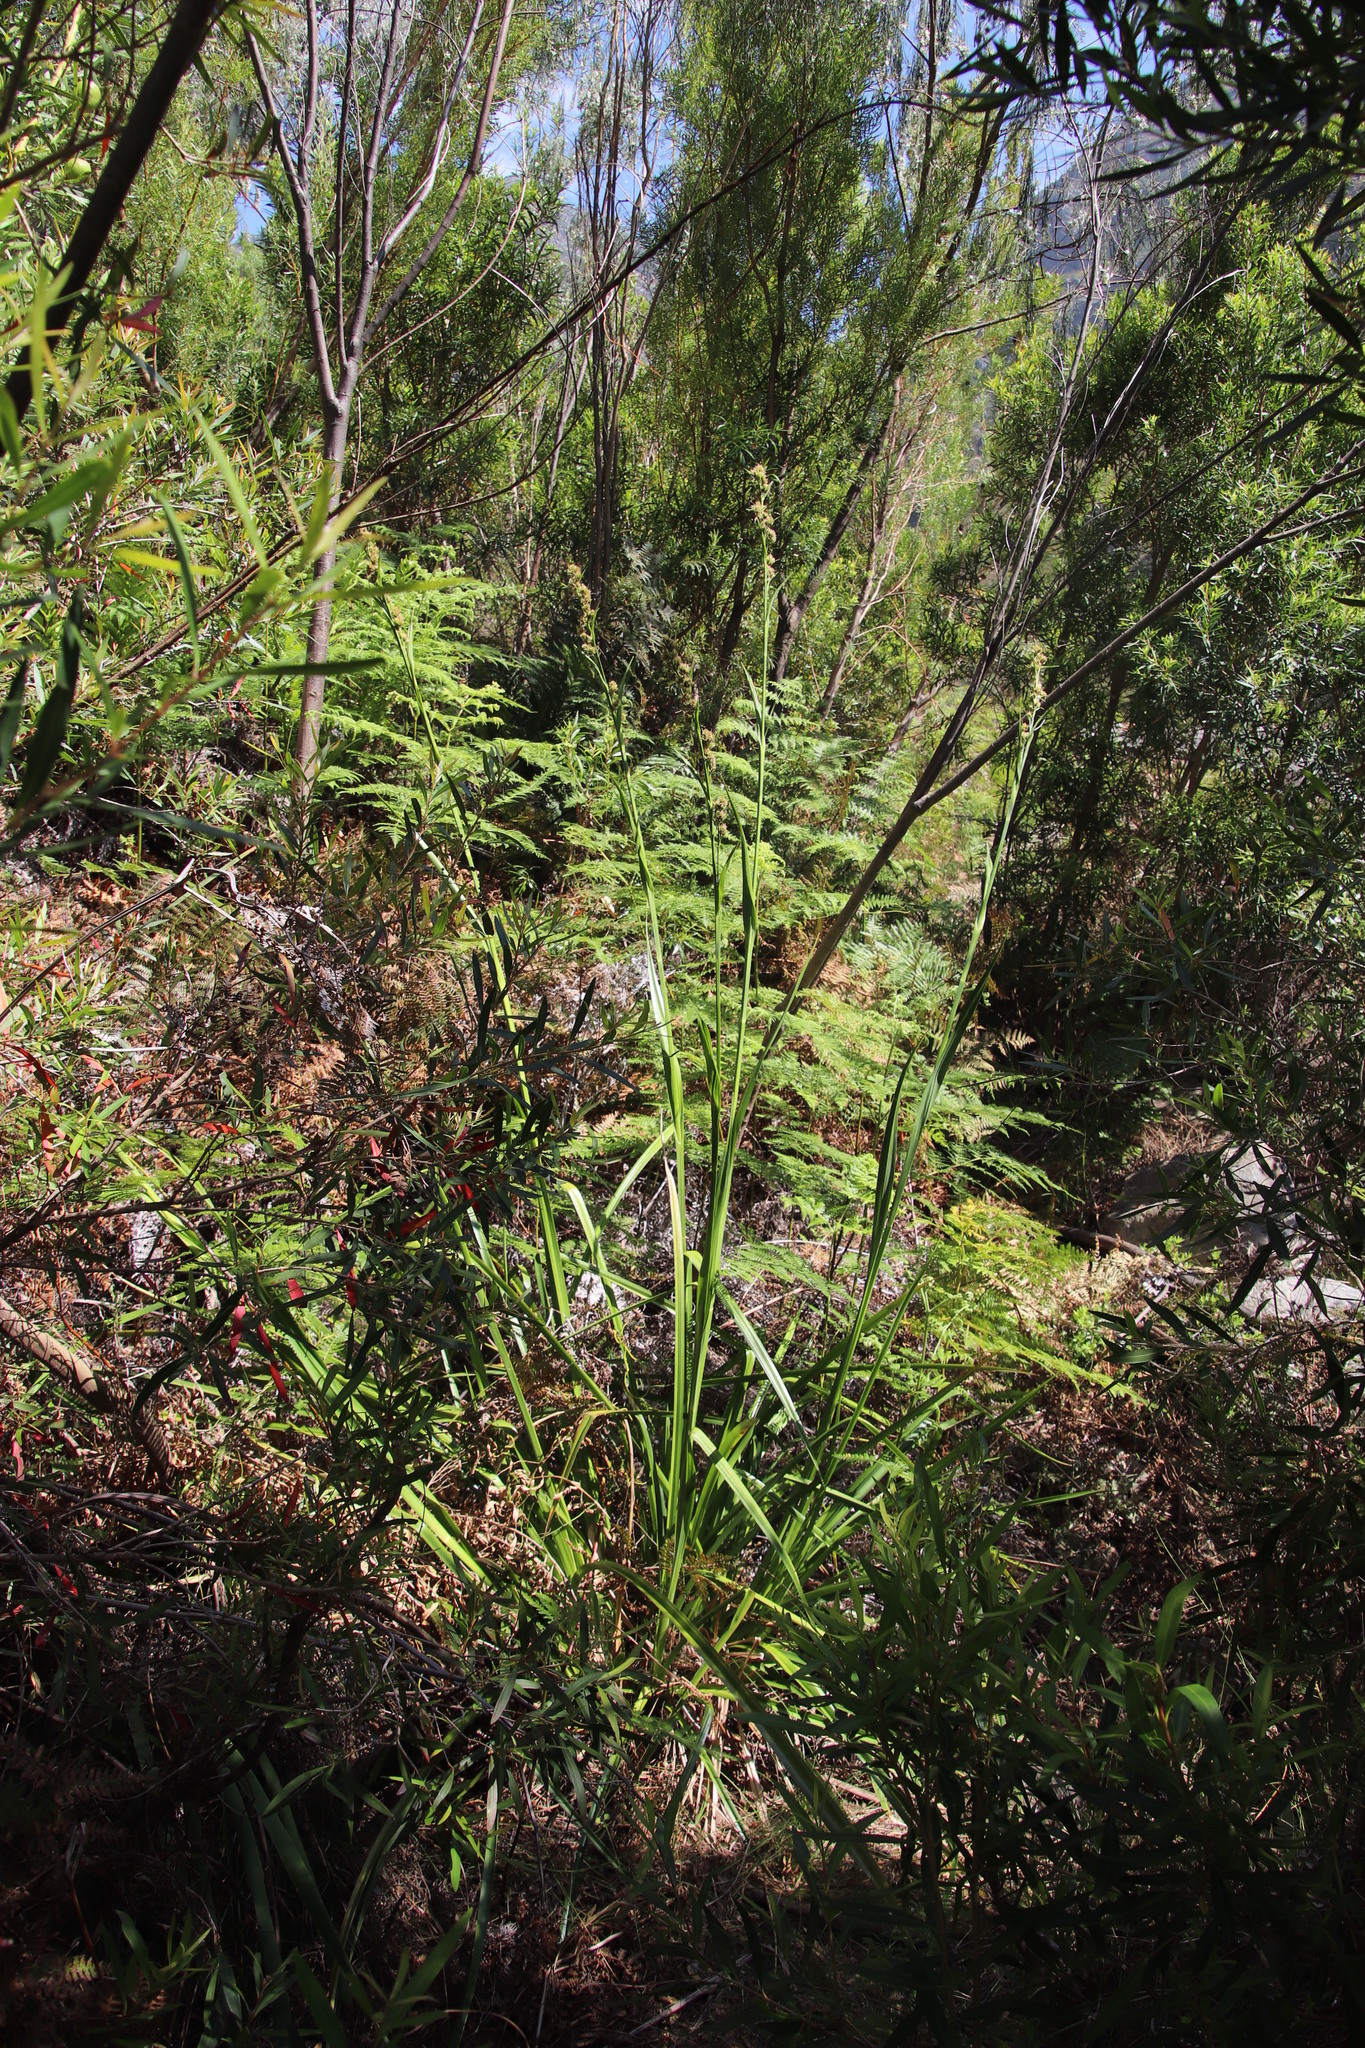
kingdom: Plantae
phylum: Tracheophyta
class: Liliopsida
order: Poales
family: Cyperaceae
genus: Carpha
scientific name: Carpha glomerata
